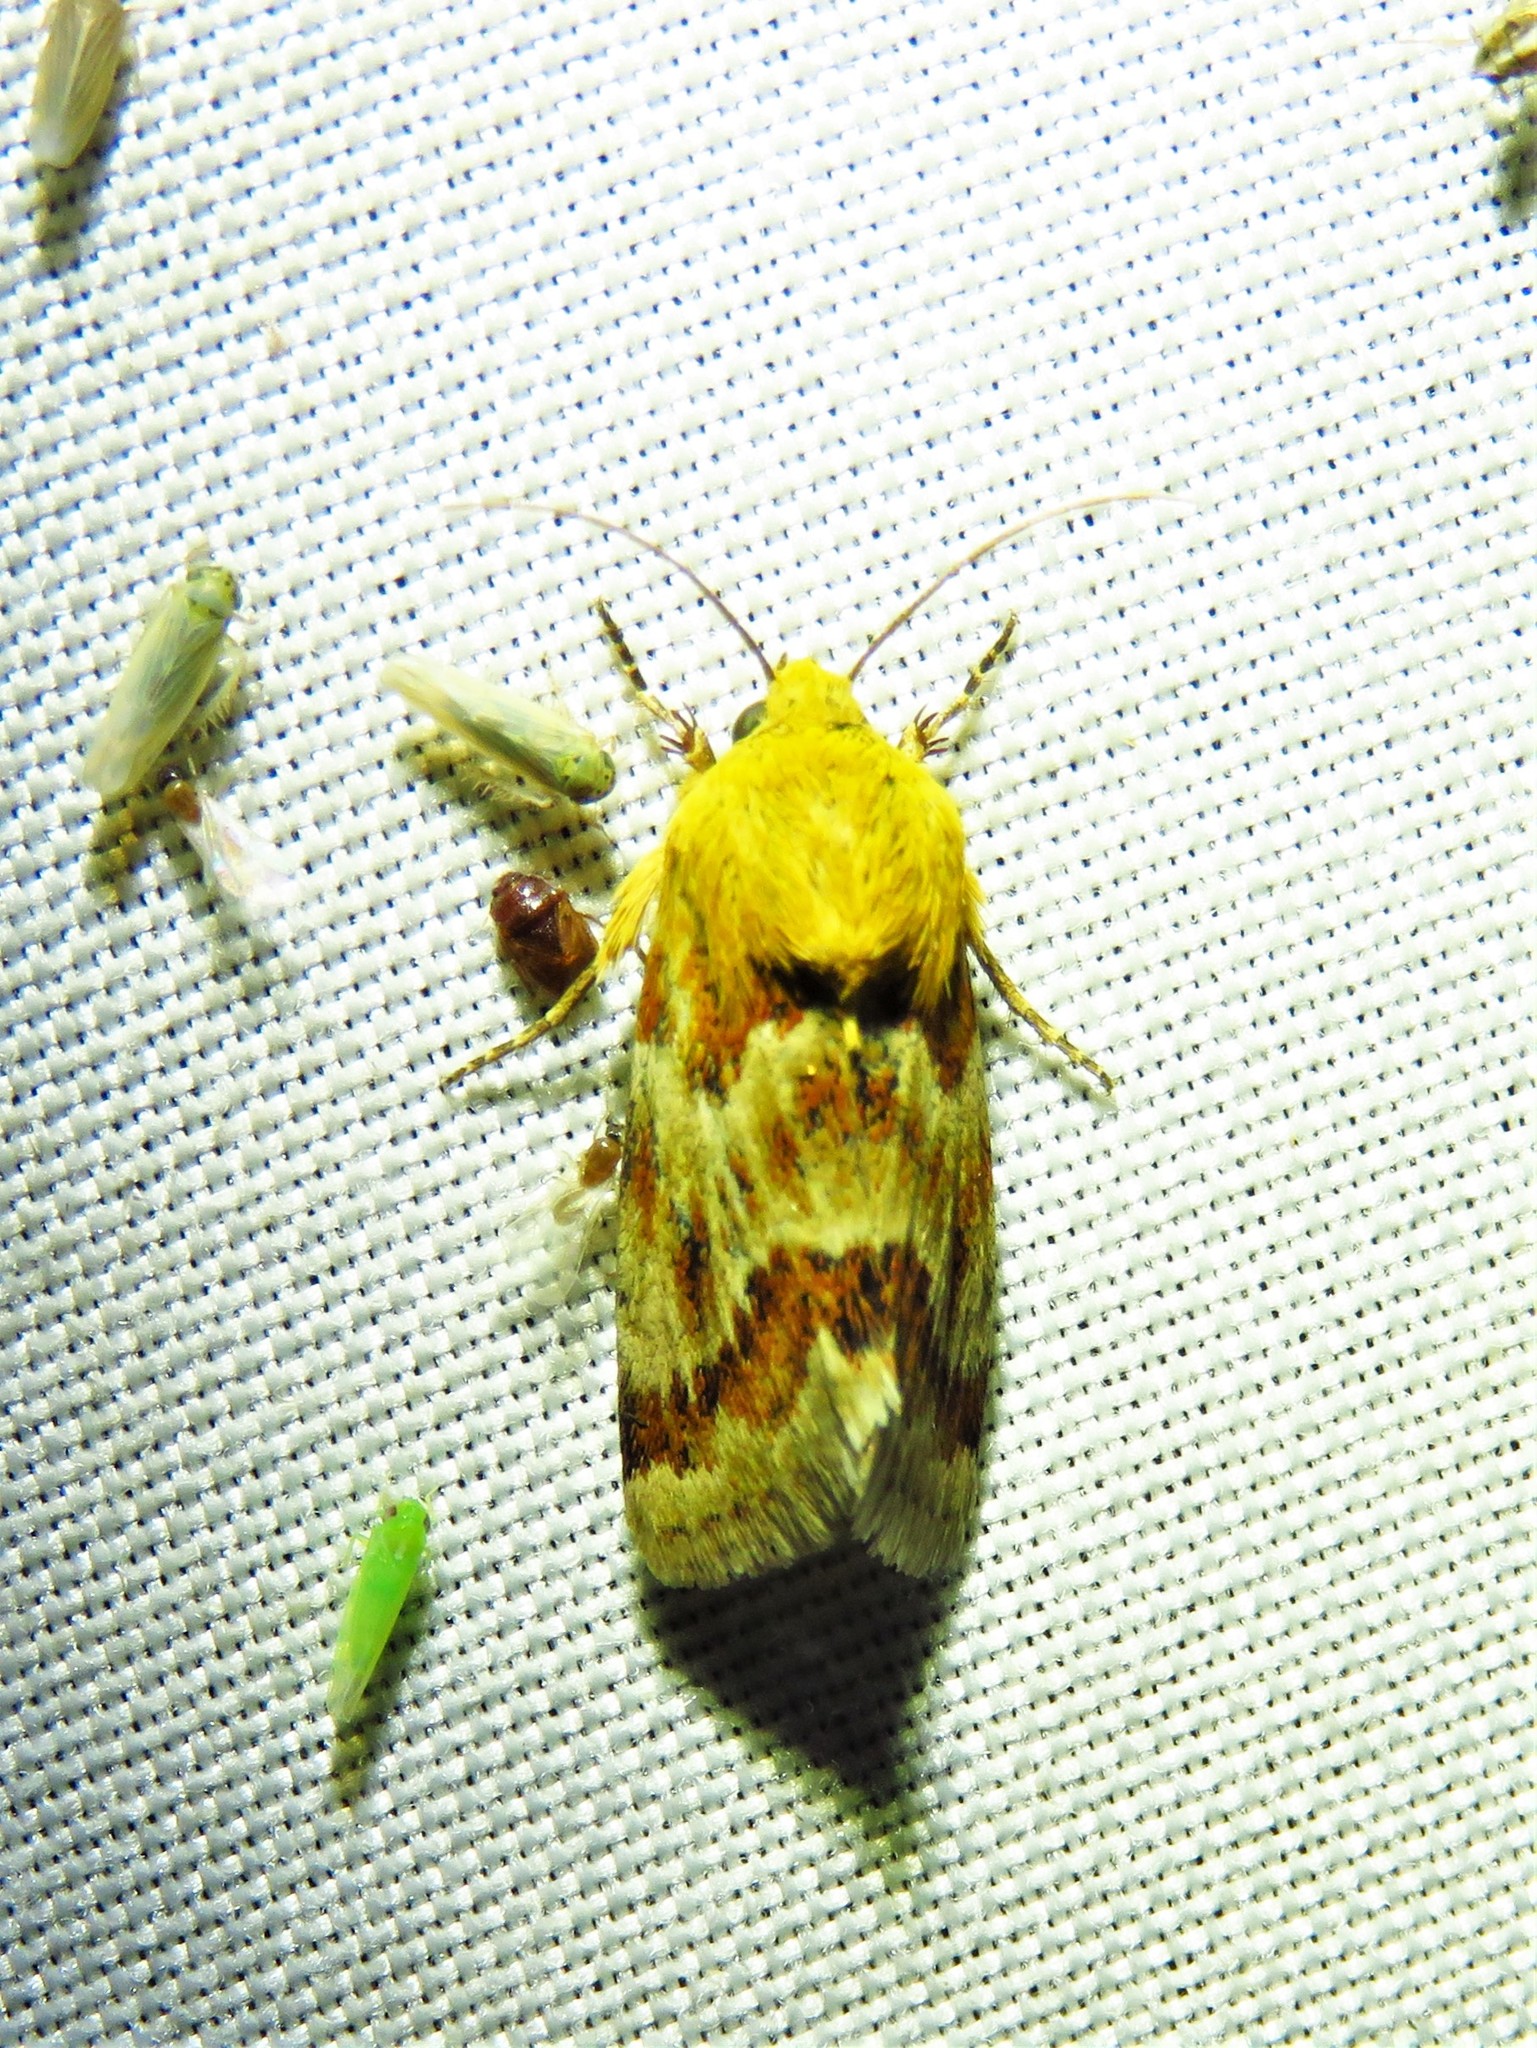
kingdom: Animalia
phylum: Arthropoda
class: Insecta
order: Lepidoptera
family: Noctuidae
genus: Schinia
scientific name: Schinia siren
